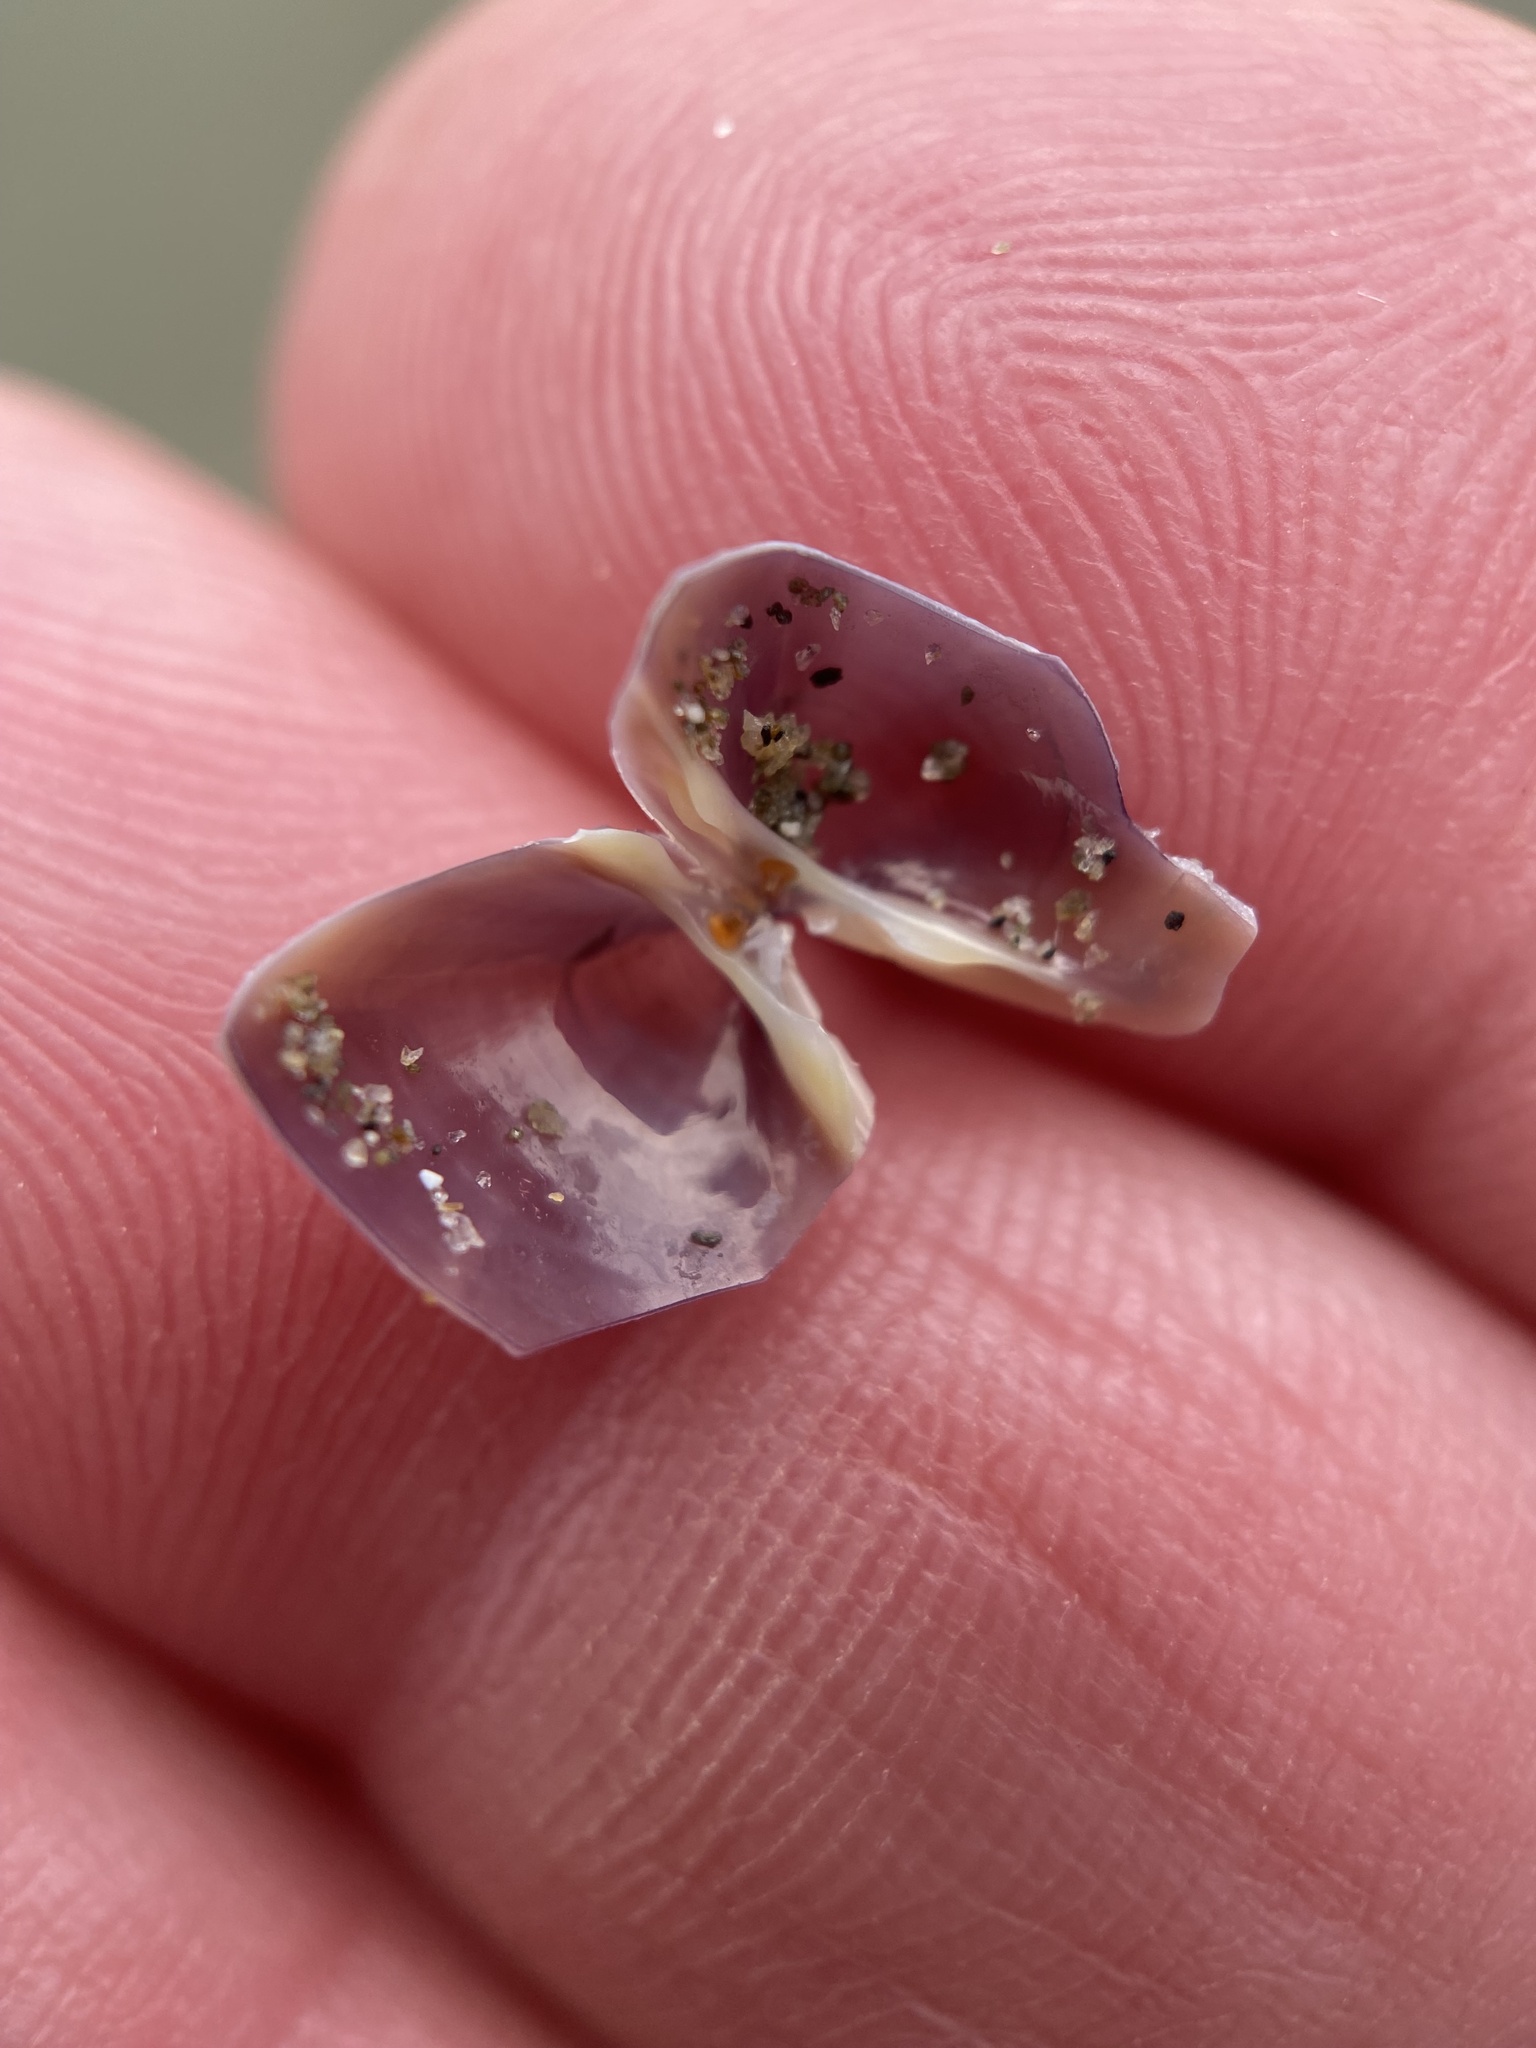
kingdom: Animalia
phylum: Mollusca
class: Bivalvia
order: Venerida
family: Mactridae
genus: Crassula
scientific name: Crassula aequilatera
